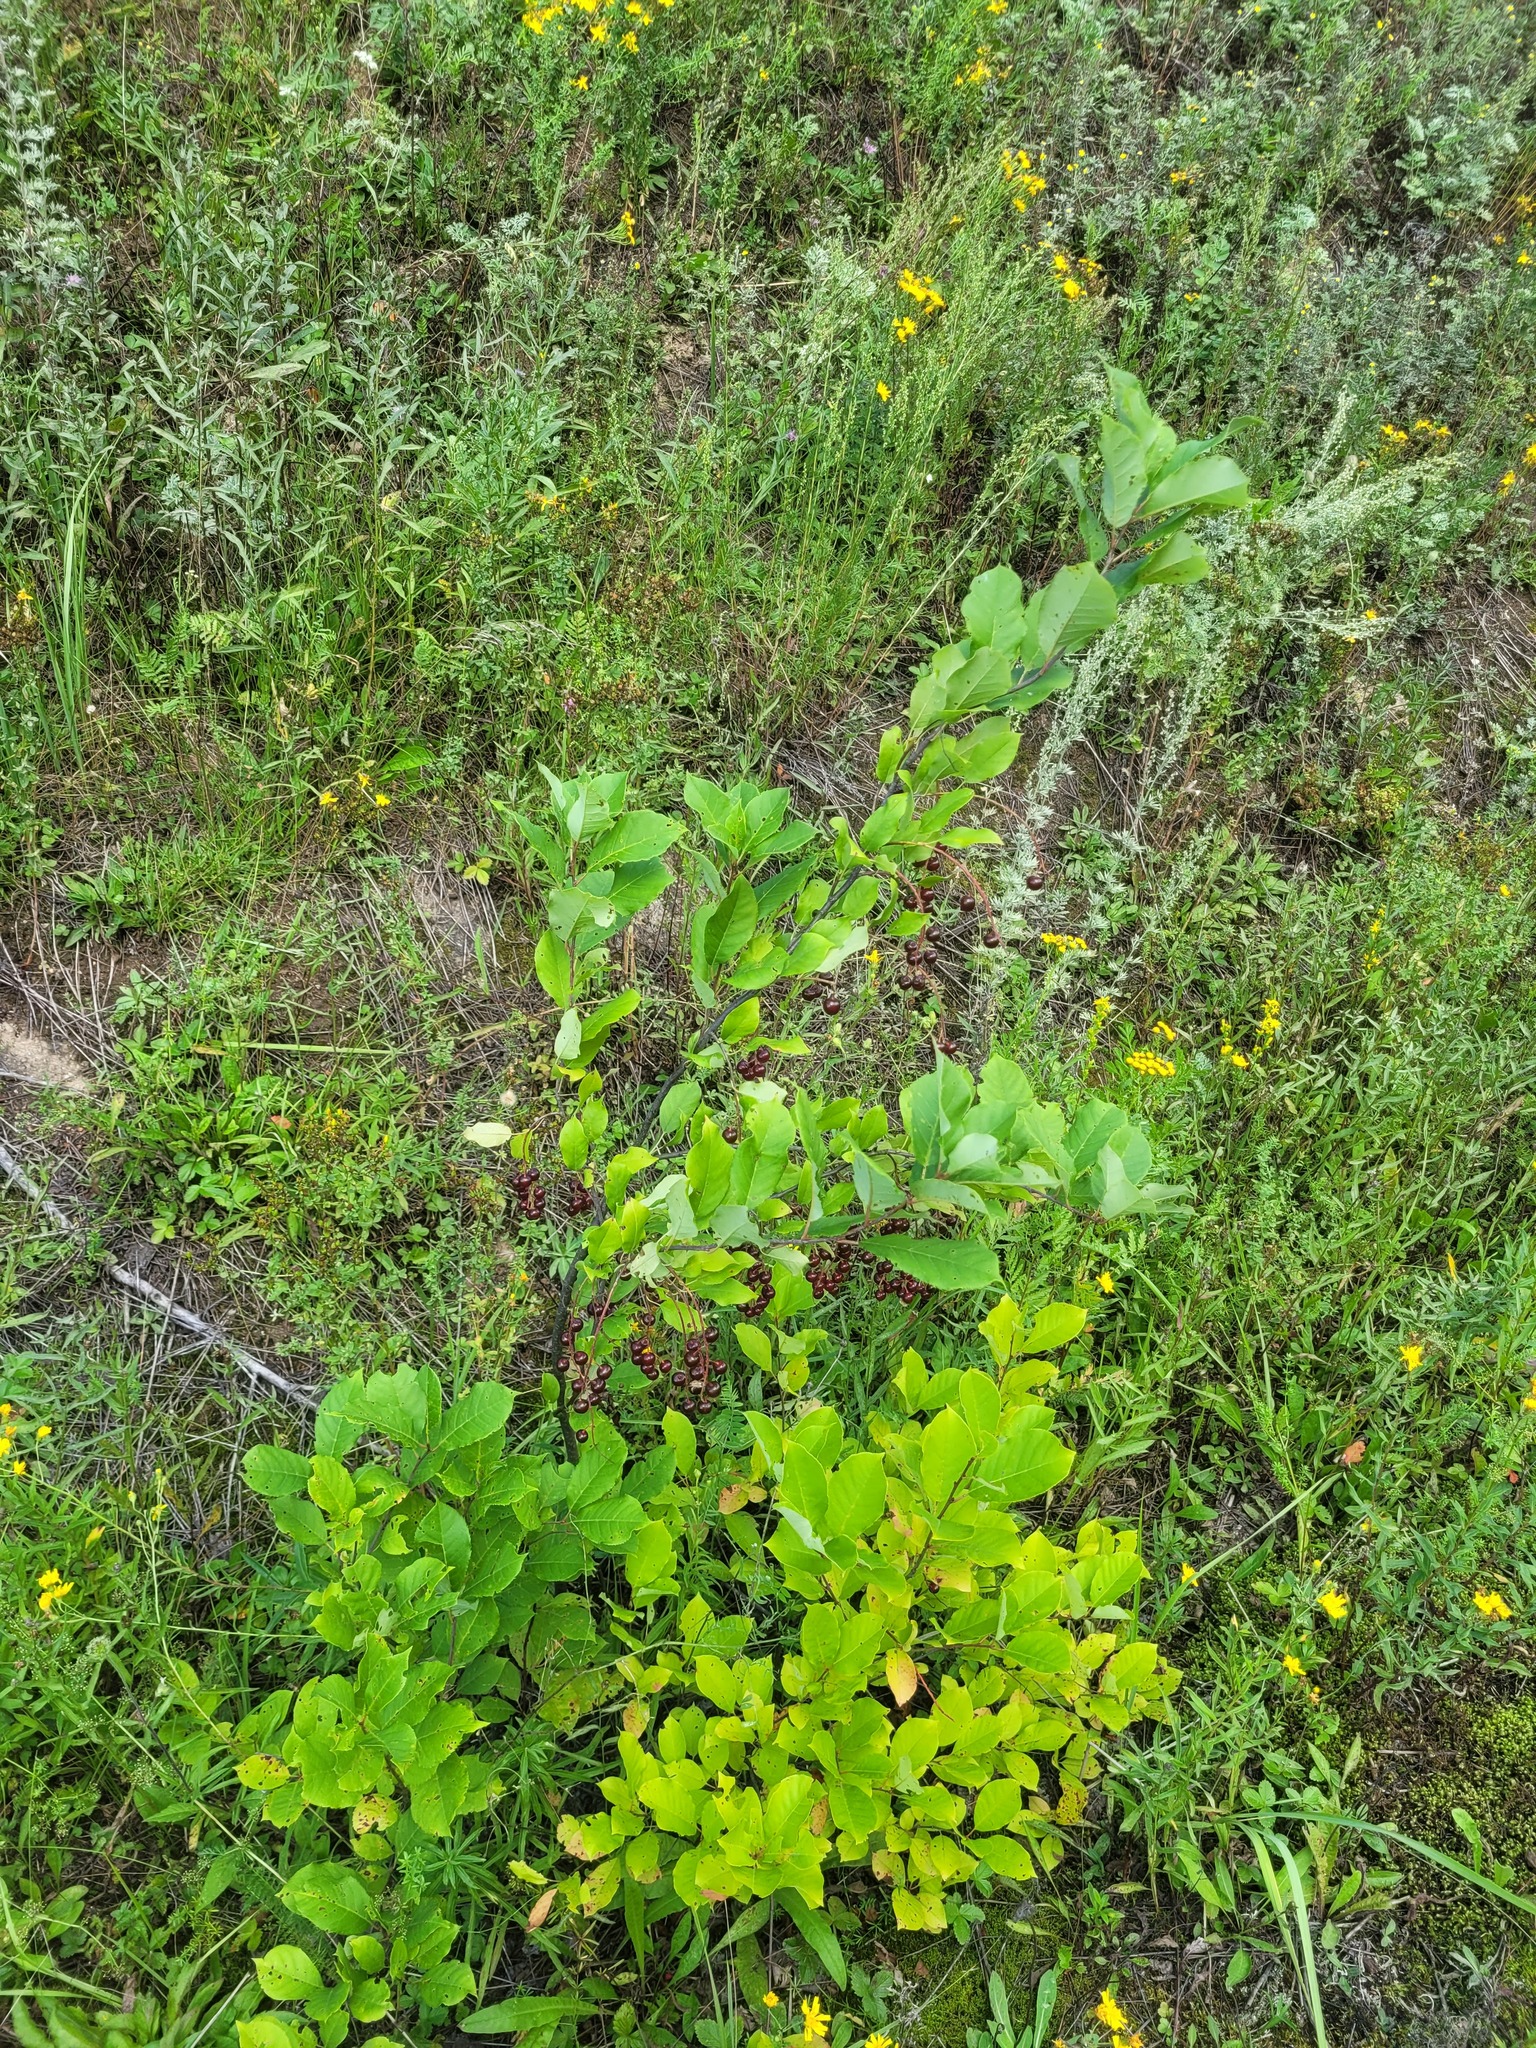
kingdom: Plantae
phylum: Tracheophyta
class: Magnoliopsida
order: Rosales
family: Rosaceae
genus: Prunus
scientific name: Prunus virginiana
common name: Chokecherry
